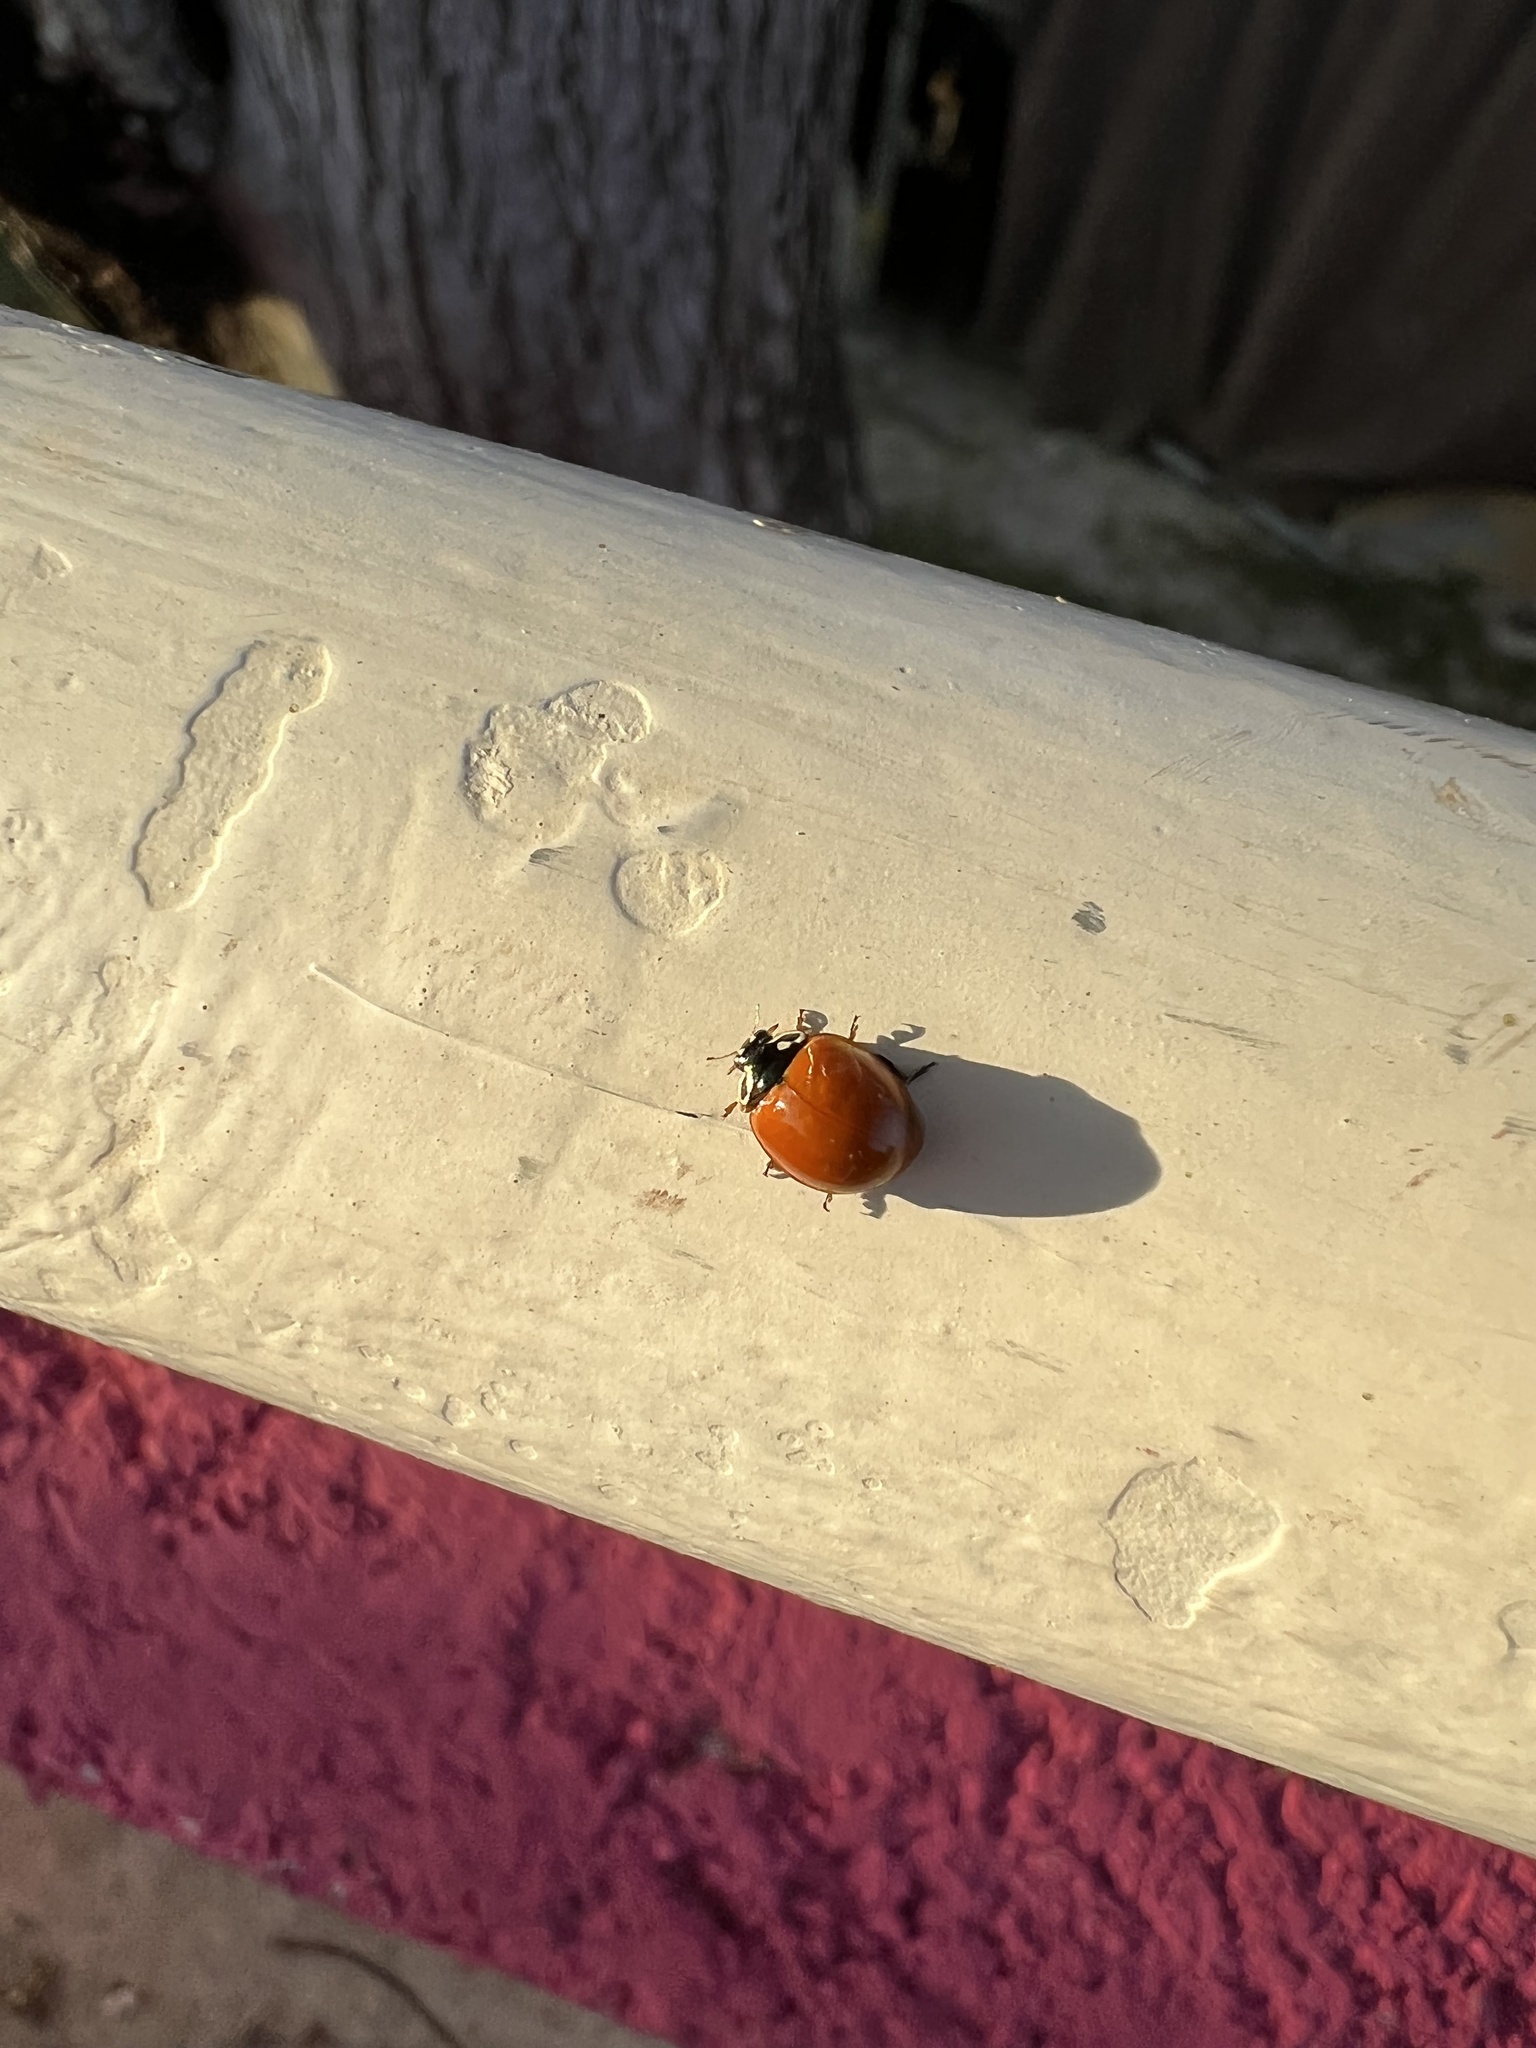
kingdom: Animalia
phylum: Arthropoda
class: Insecta
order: Coleoptera
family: Coccinellidae
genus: Cycloneda
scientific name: Cycloneda sanguinea
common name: Ladybird beetle
